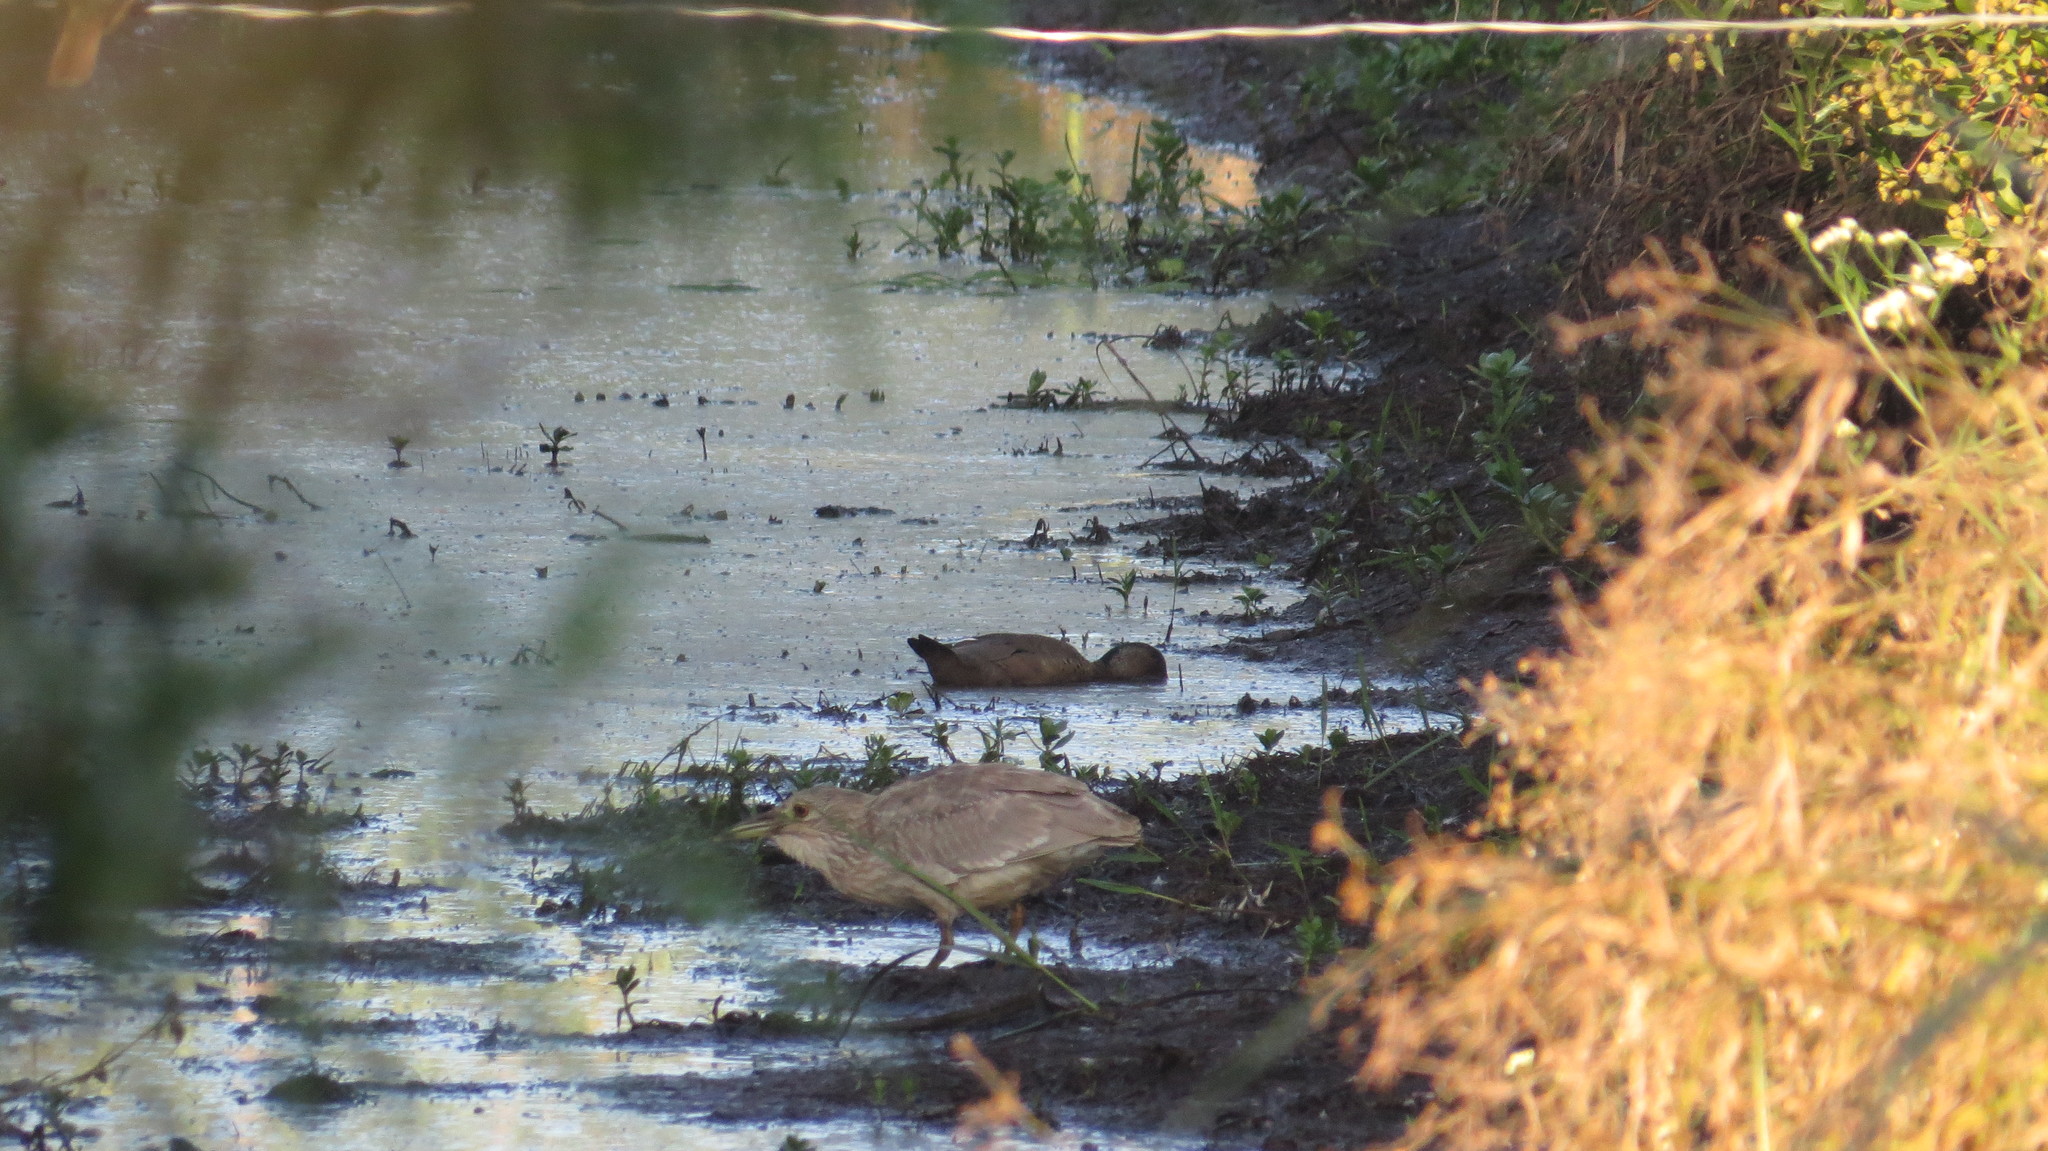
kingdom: Animalia
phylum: Chordata
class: Aves
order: Pelecaniformes
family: Ardeidae
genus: Nycticorax
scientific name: Nycticorax nycticorax
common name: Black-crowned night heron
